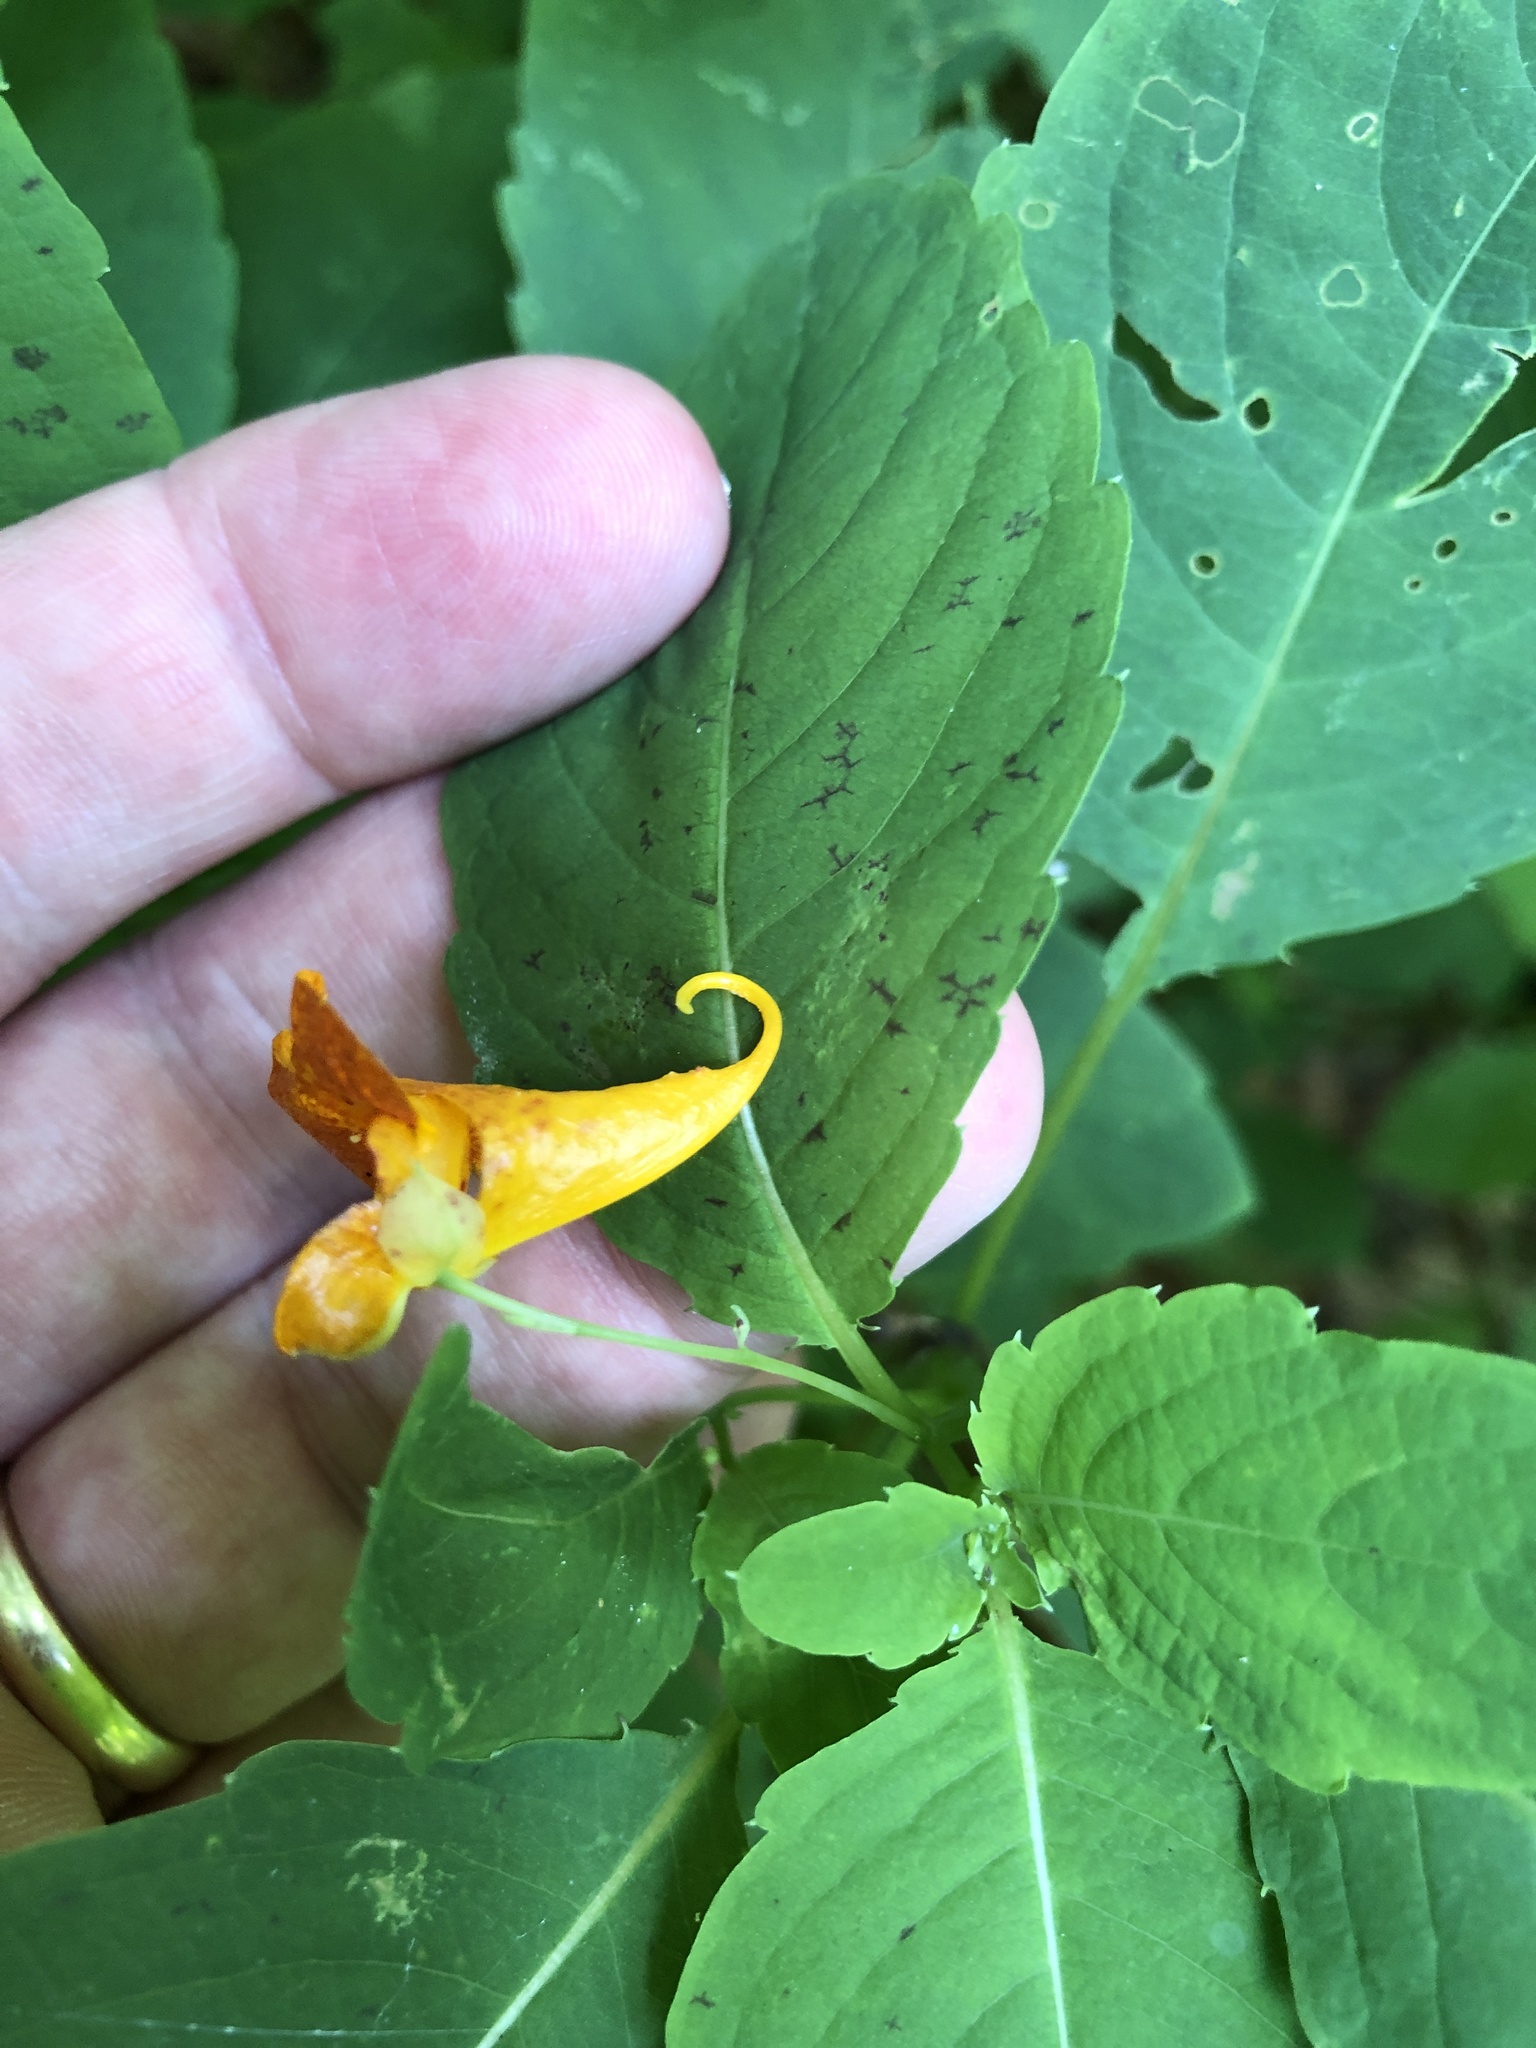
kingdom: Plantae
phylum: Tracheophyta
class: Magnoliopsida
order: Ericales
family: Balsaminaceae
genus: Impatiens
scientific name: Impatiens capensis
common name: Orange balsam
